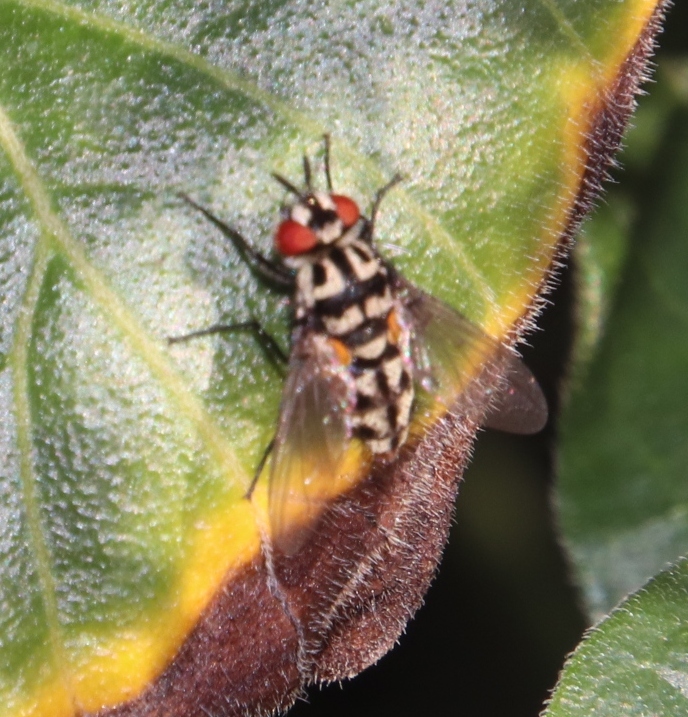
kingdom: Animalia
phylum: Arthropoda
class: Insecta
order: Diptera
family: Tachinidae
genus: Ossidingia
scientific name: Ossidingia
